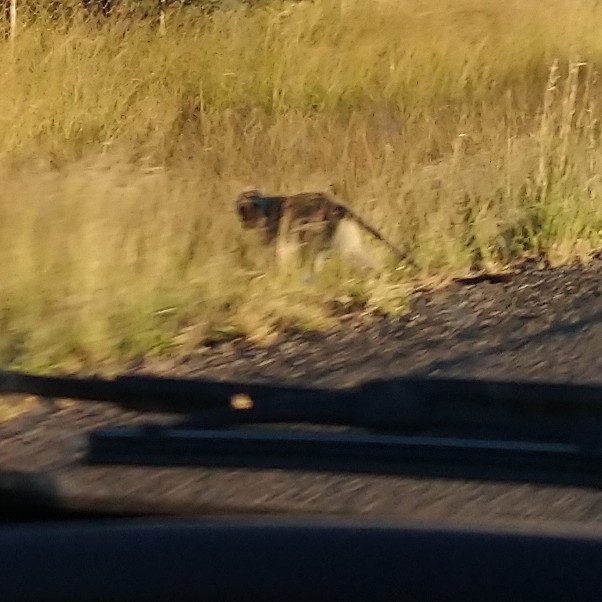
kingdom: Animalia
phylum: Chordata
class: Mammalia
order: Primates
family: Cercopithecidae
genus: Chlorocebus
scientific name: Chlorocebus pygerythrus
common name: Vervet monkey
